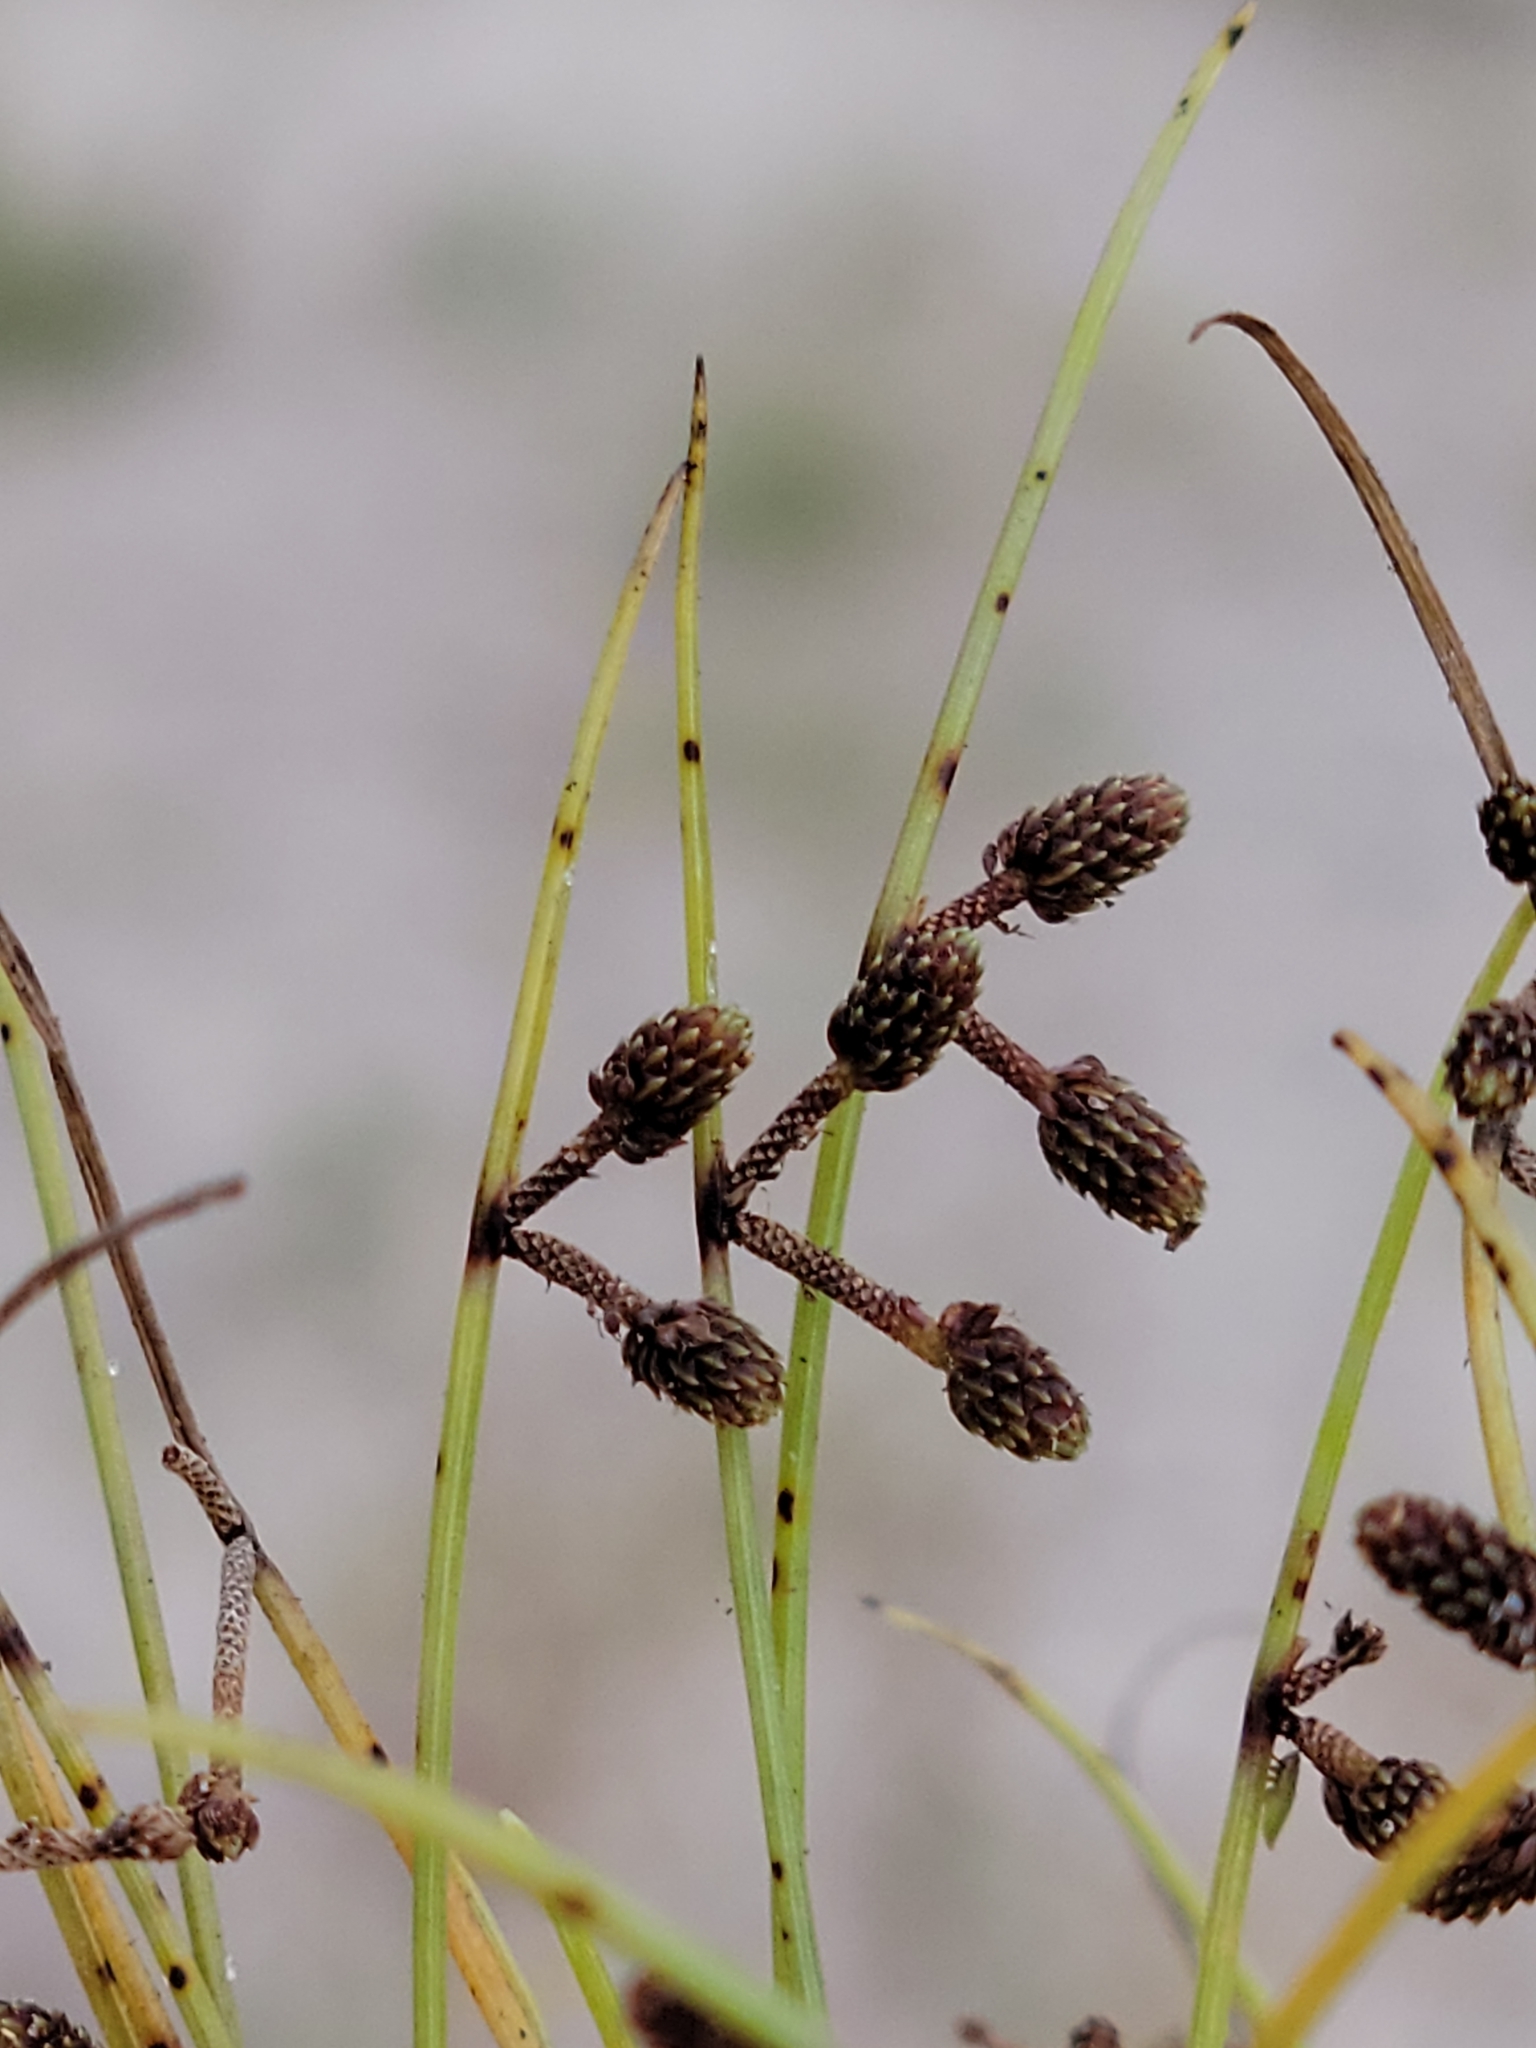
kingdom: Plantae
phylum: Tracheophyta
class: Liliopsida
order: Poales
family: Cyperaceae
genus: Cyperus
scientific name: Cyperus subsquarrosus
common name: Dwarf bulrush
